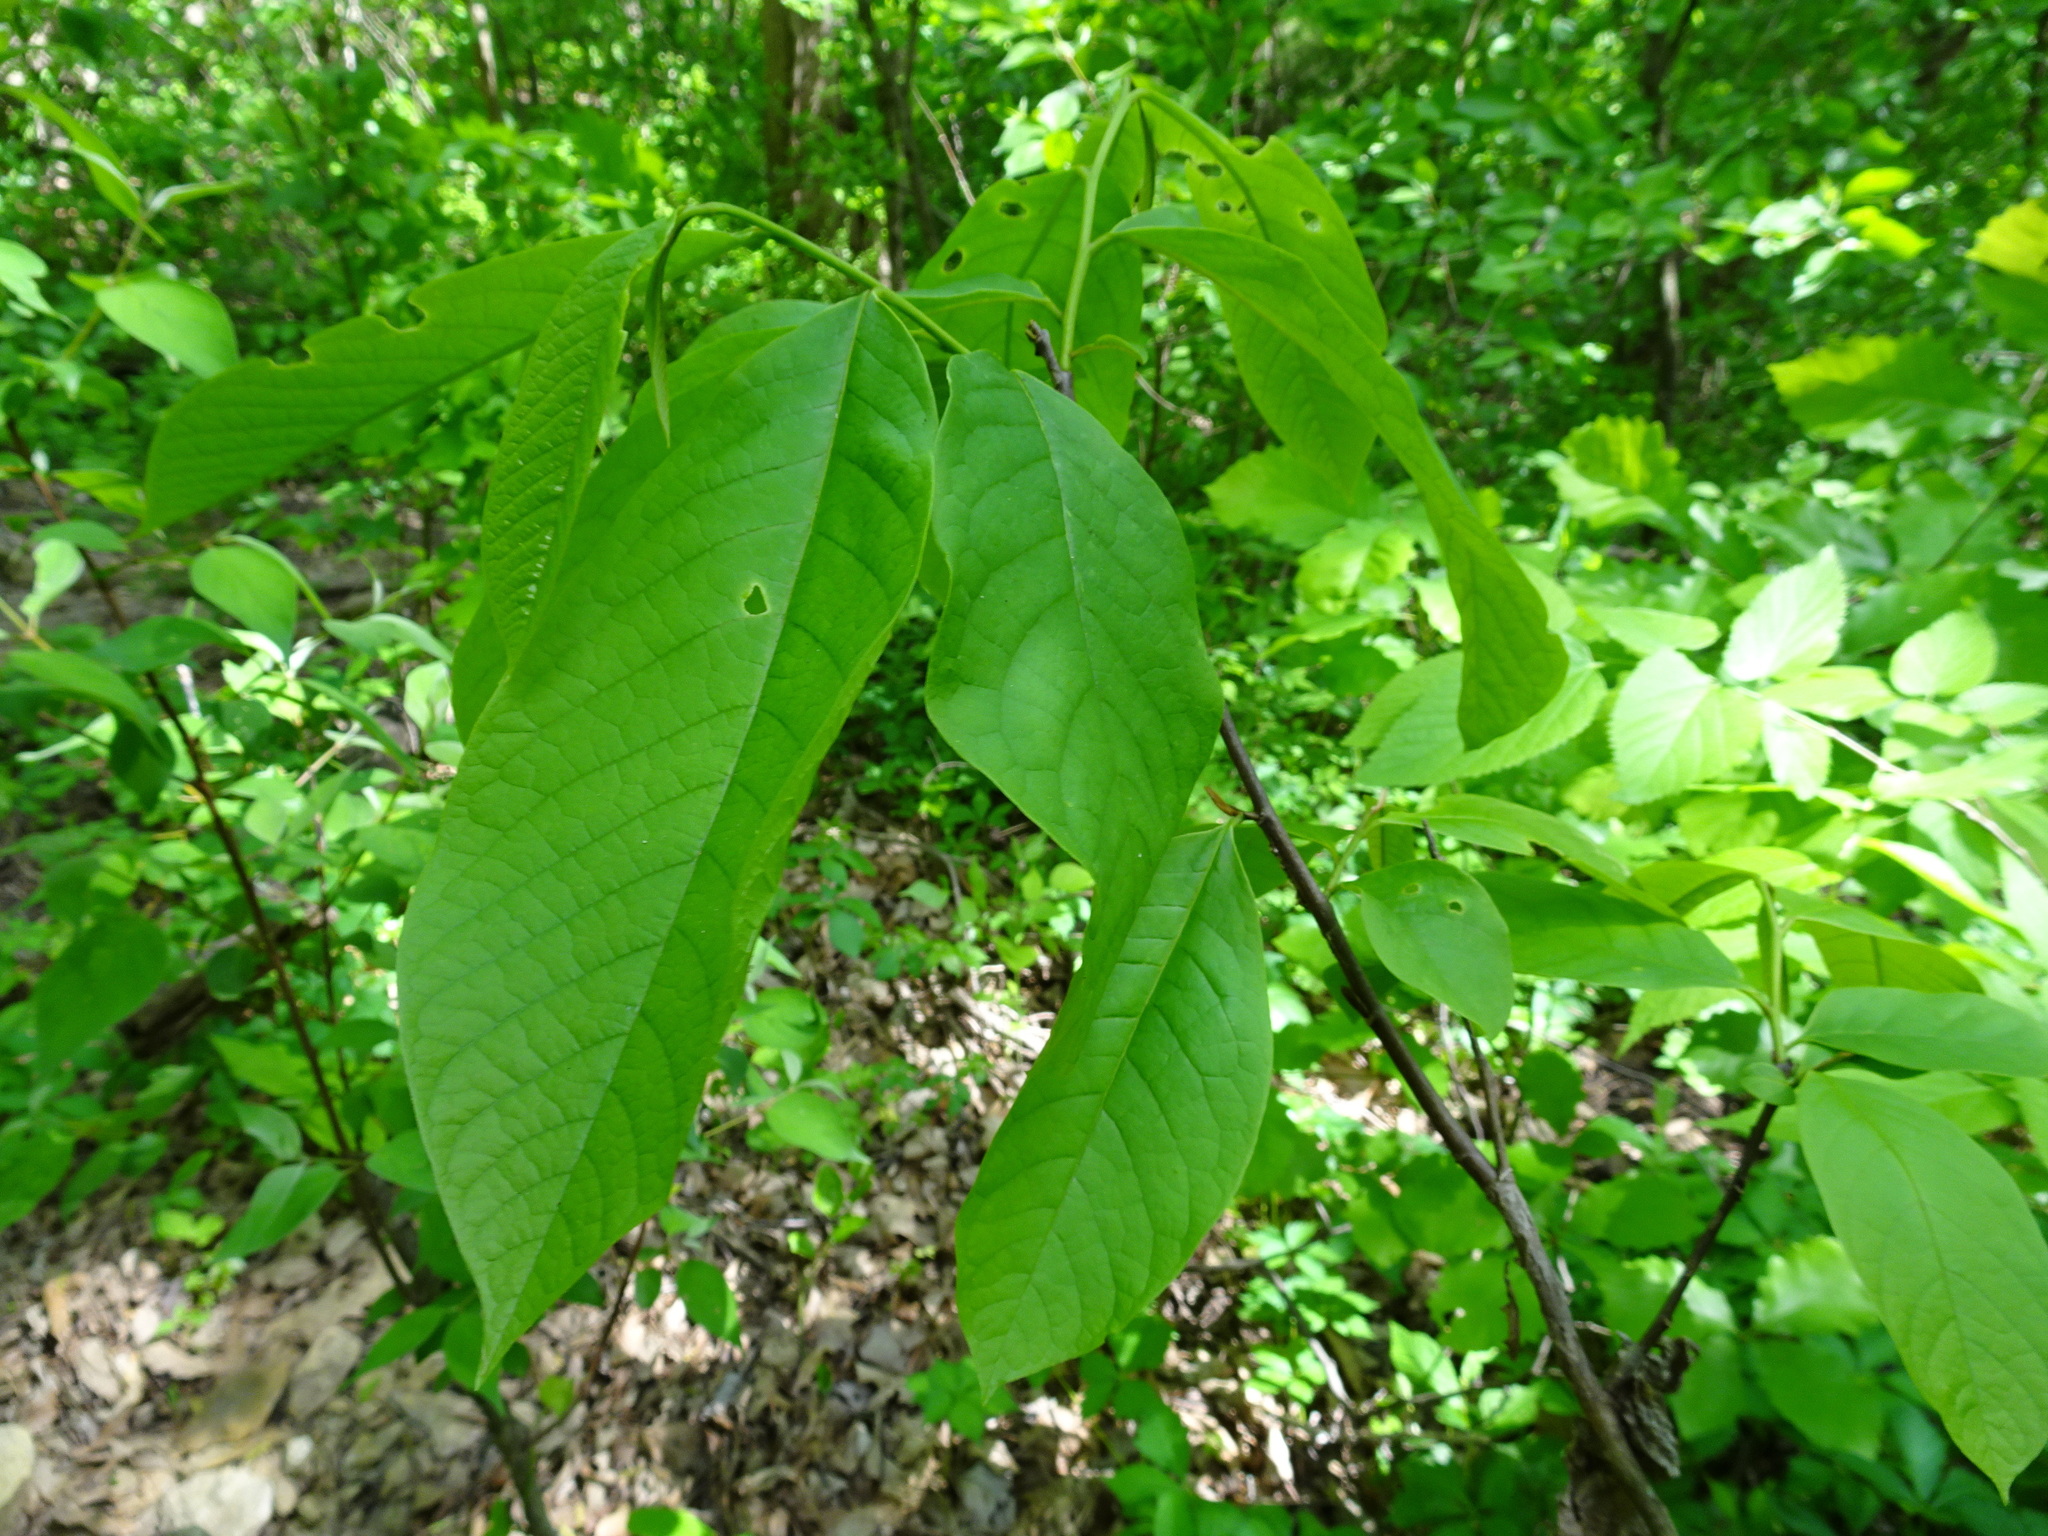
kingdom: Plantae
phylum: Tracheophyta
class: Magnoliopsida
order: Magnoliales
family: Annonaceae
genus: Asimina
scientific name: Asimina triloba
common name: Dog-banana
